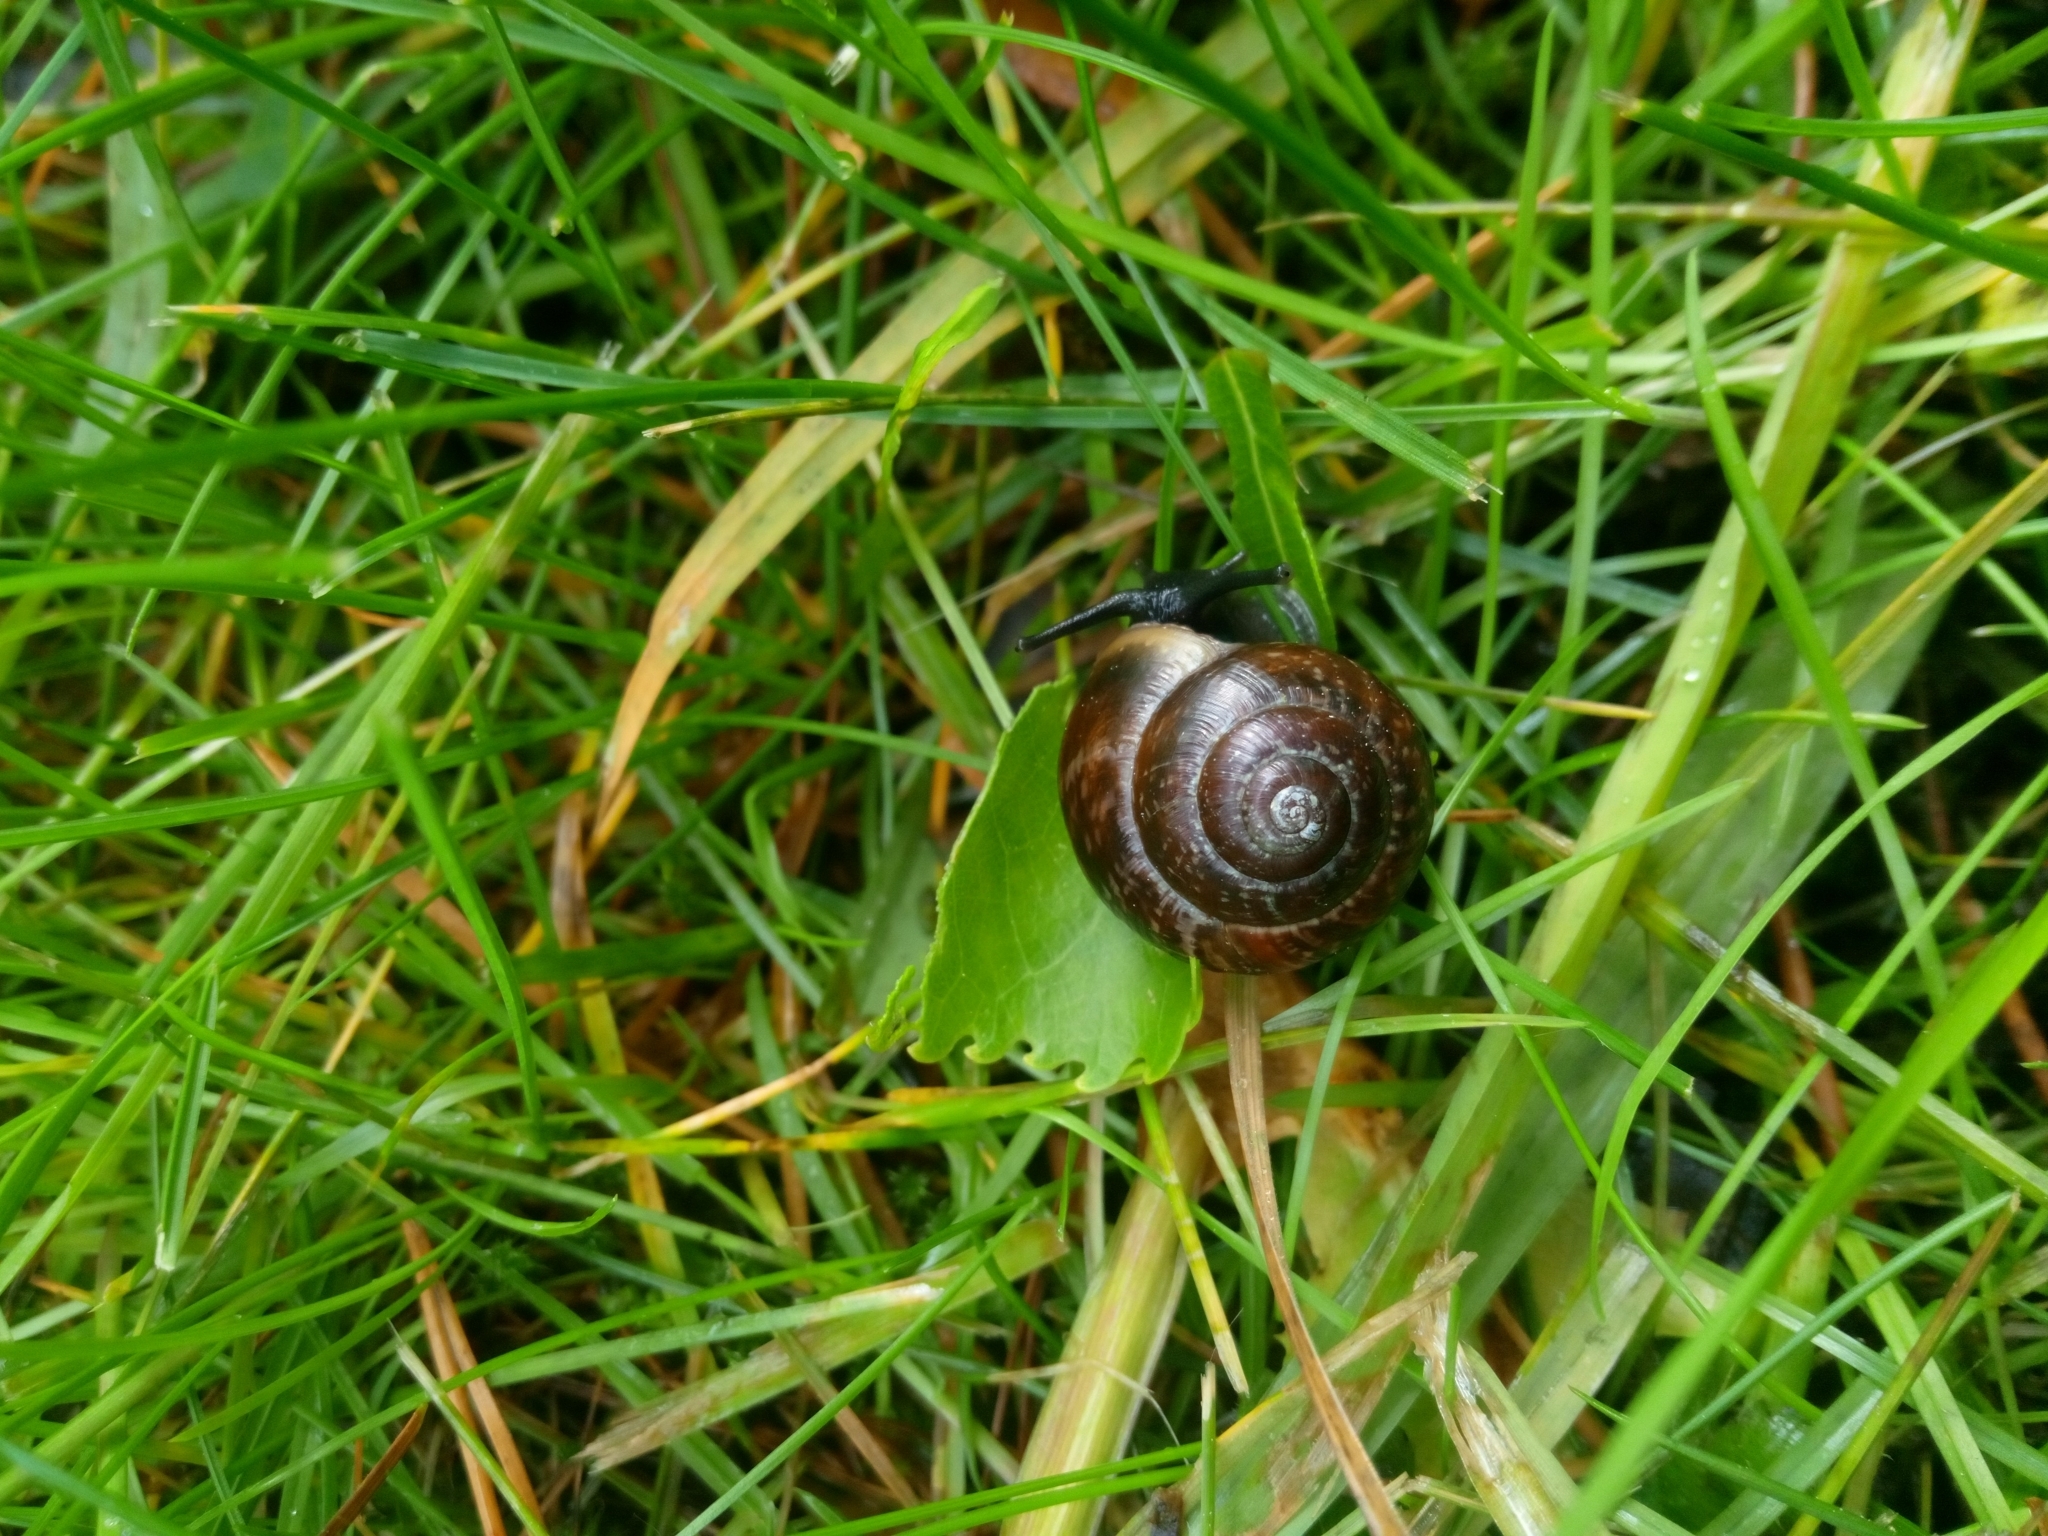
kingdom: Animalia
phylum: Mollusca
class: Gastropoda
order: Stylommatophora
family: Helicidae
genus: Arianta
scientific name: Arianta arbustorum
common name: Copse snail
